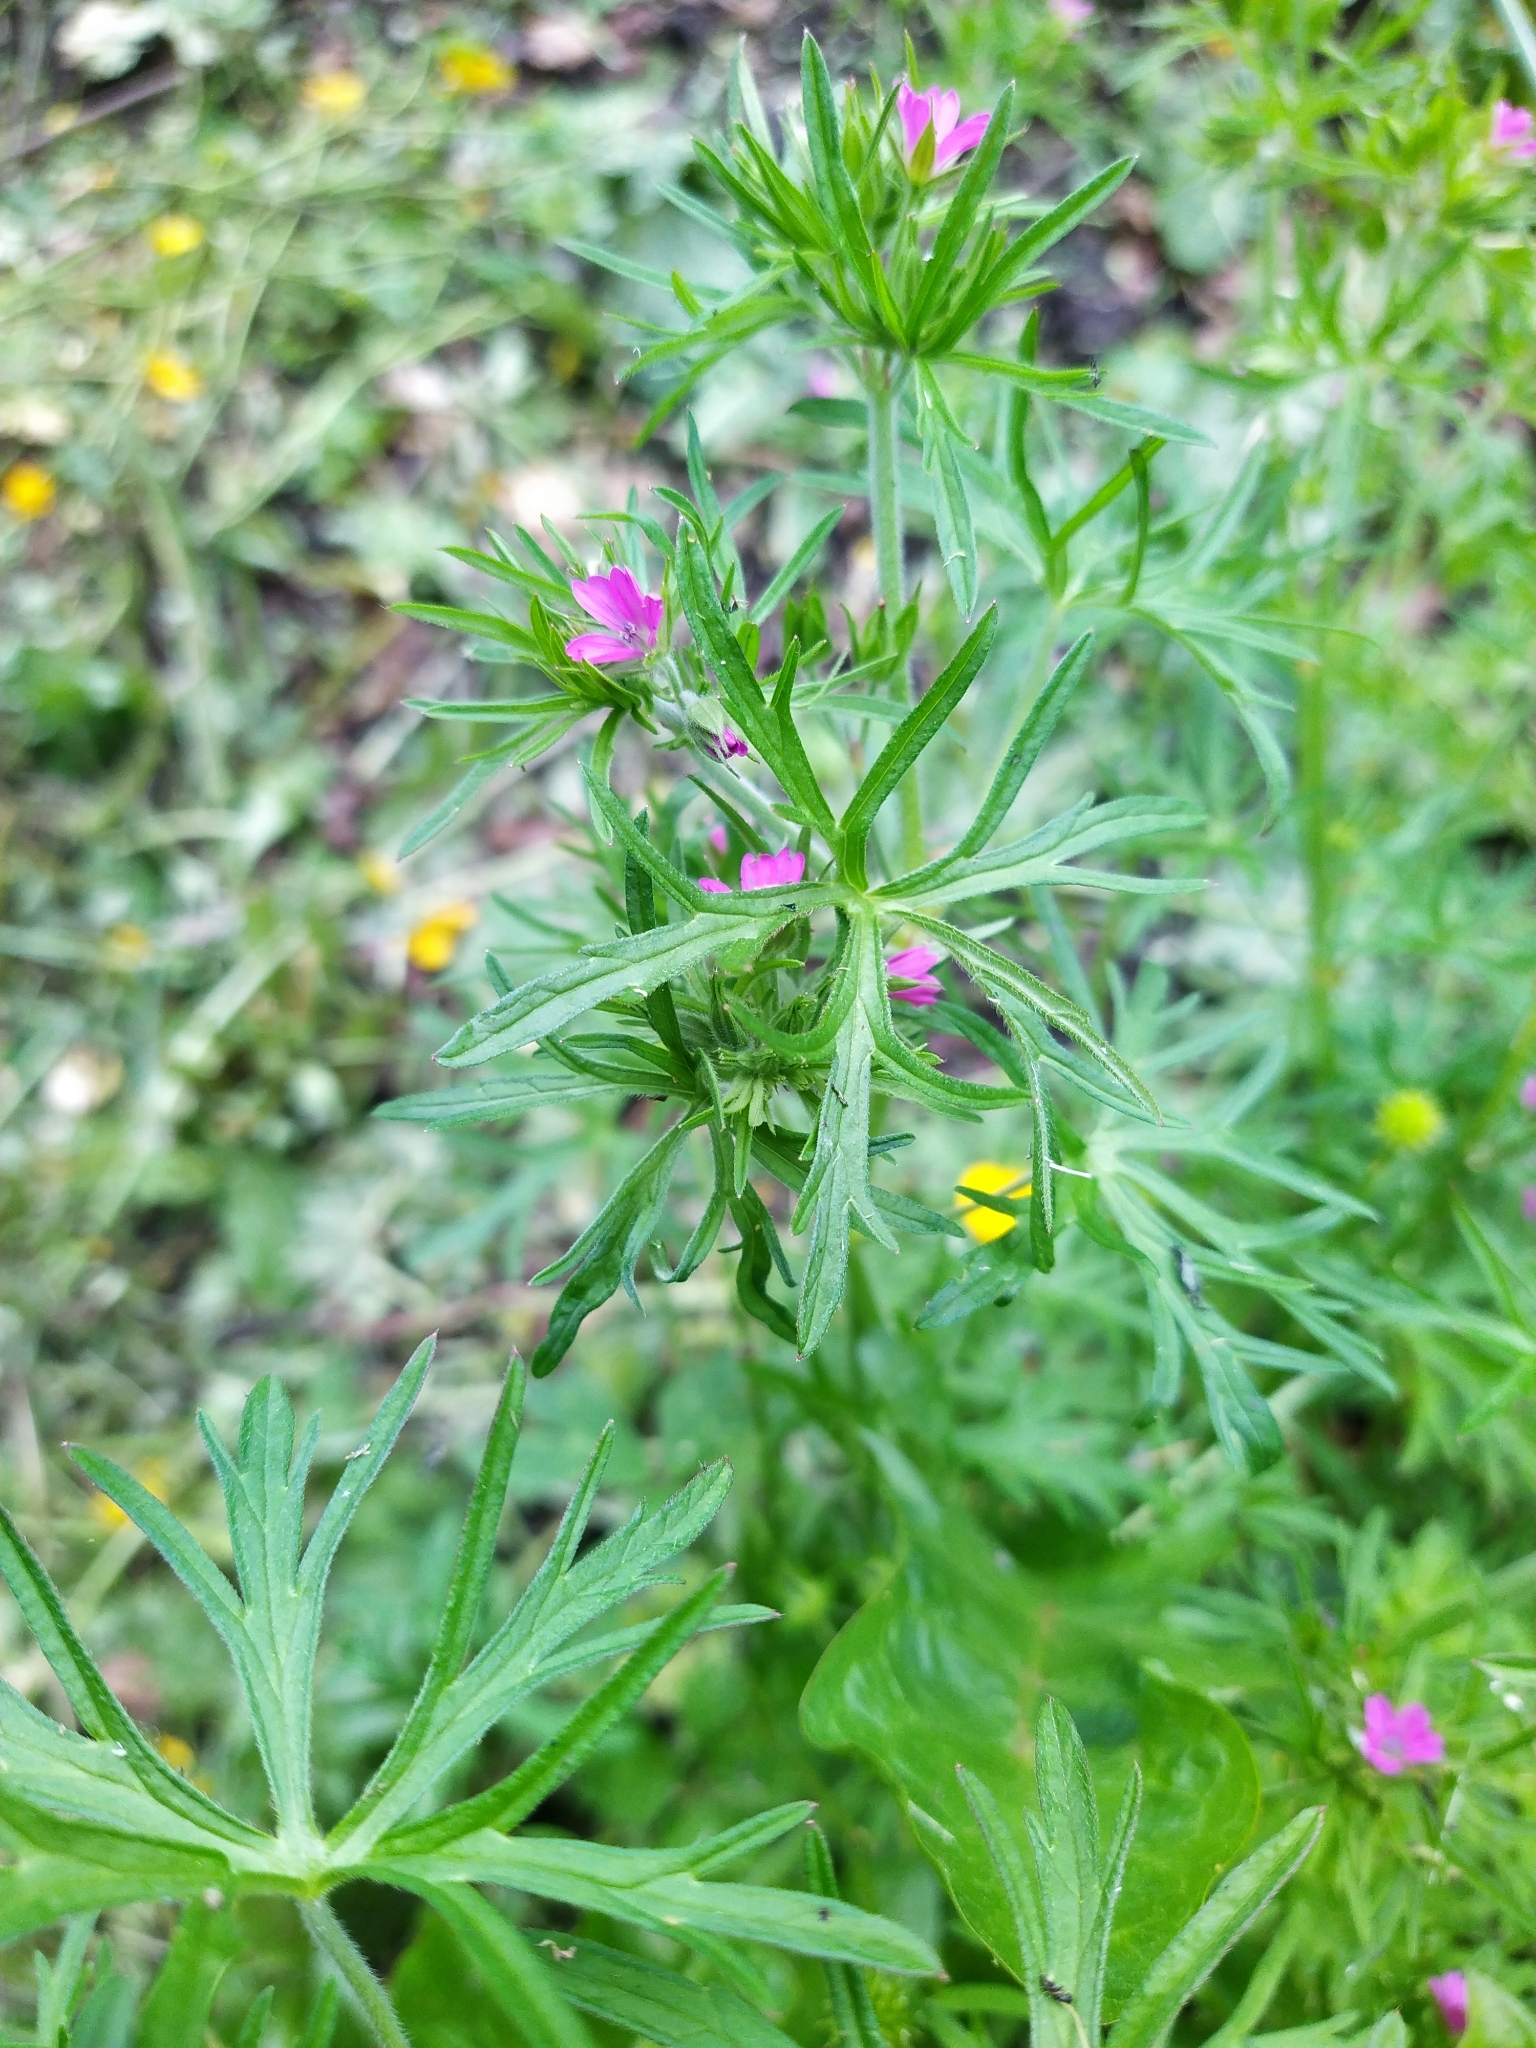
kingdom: Plantae
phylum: Tracheophyta
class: Magnoliopsida
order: Geraniales
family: Geraniaceae
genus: Geranium
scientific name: Geranium dissectum
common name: Cut-leaved crane's-bill
